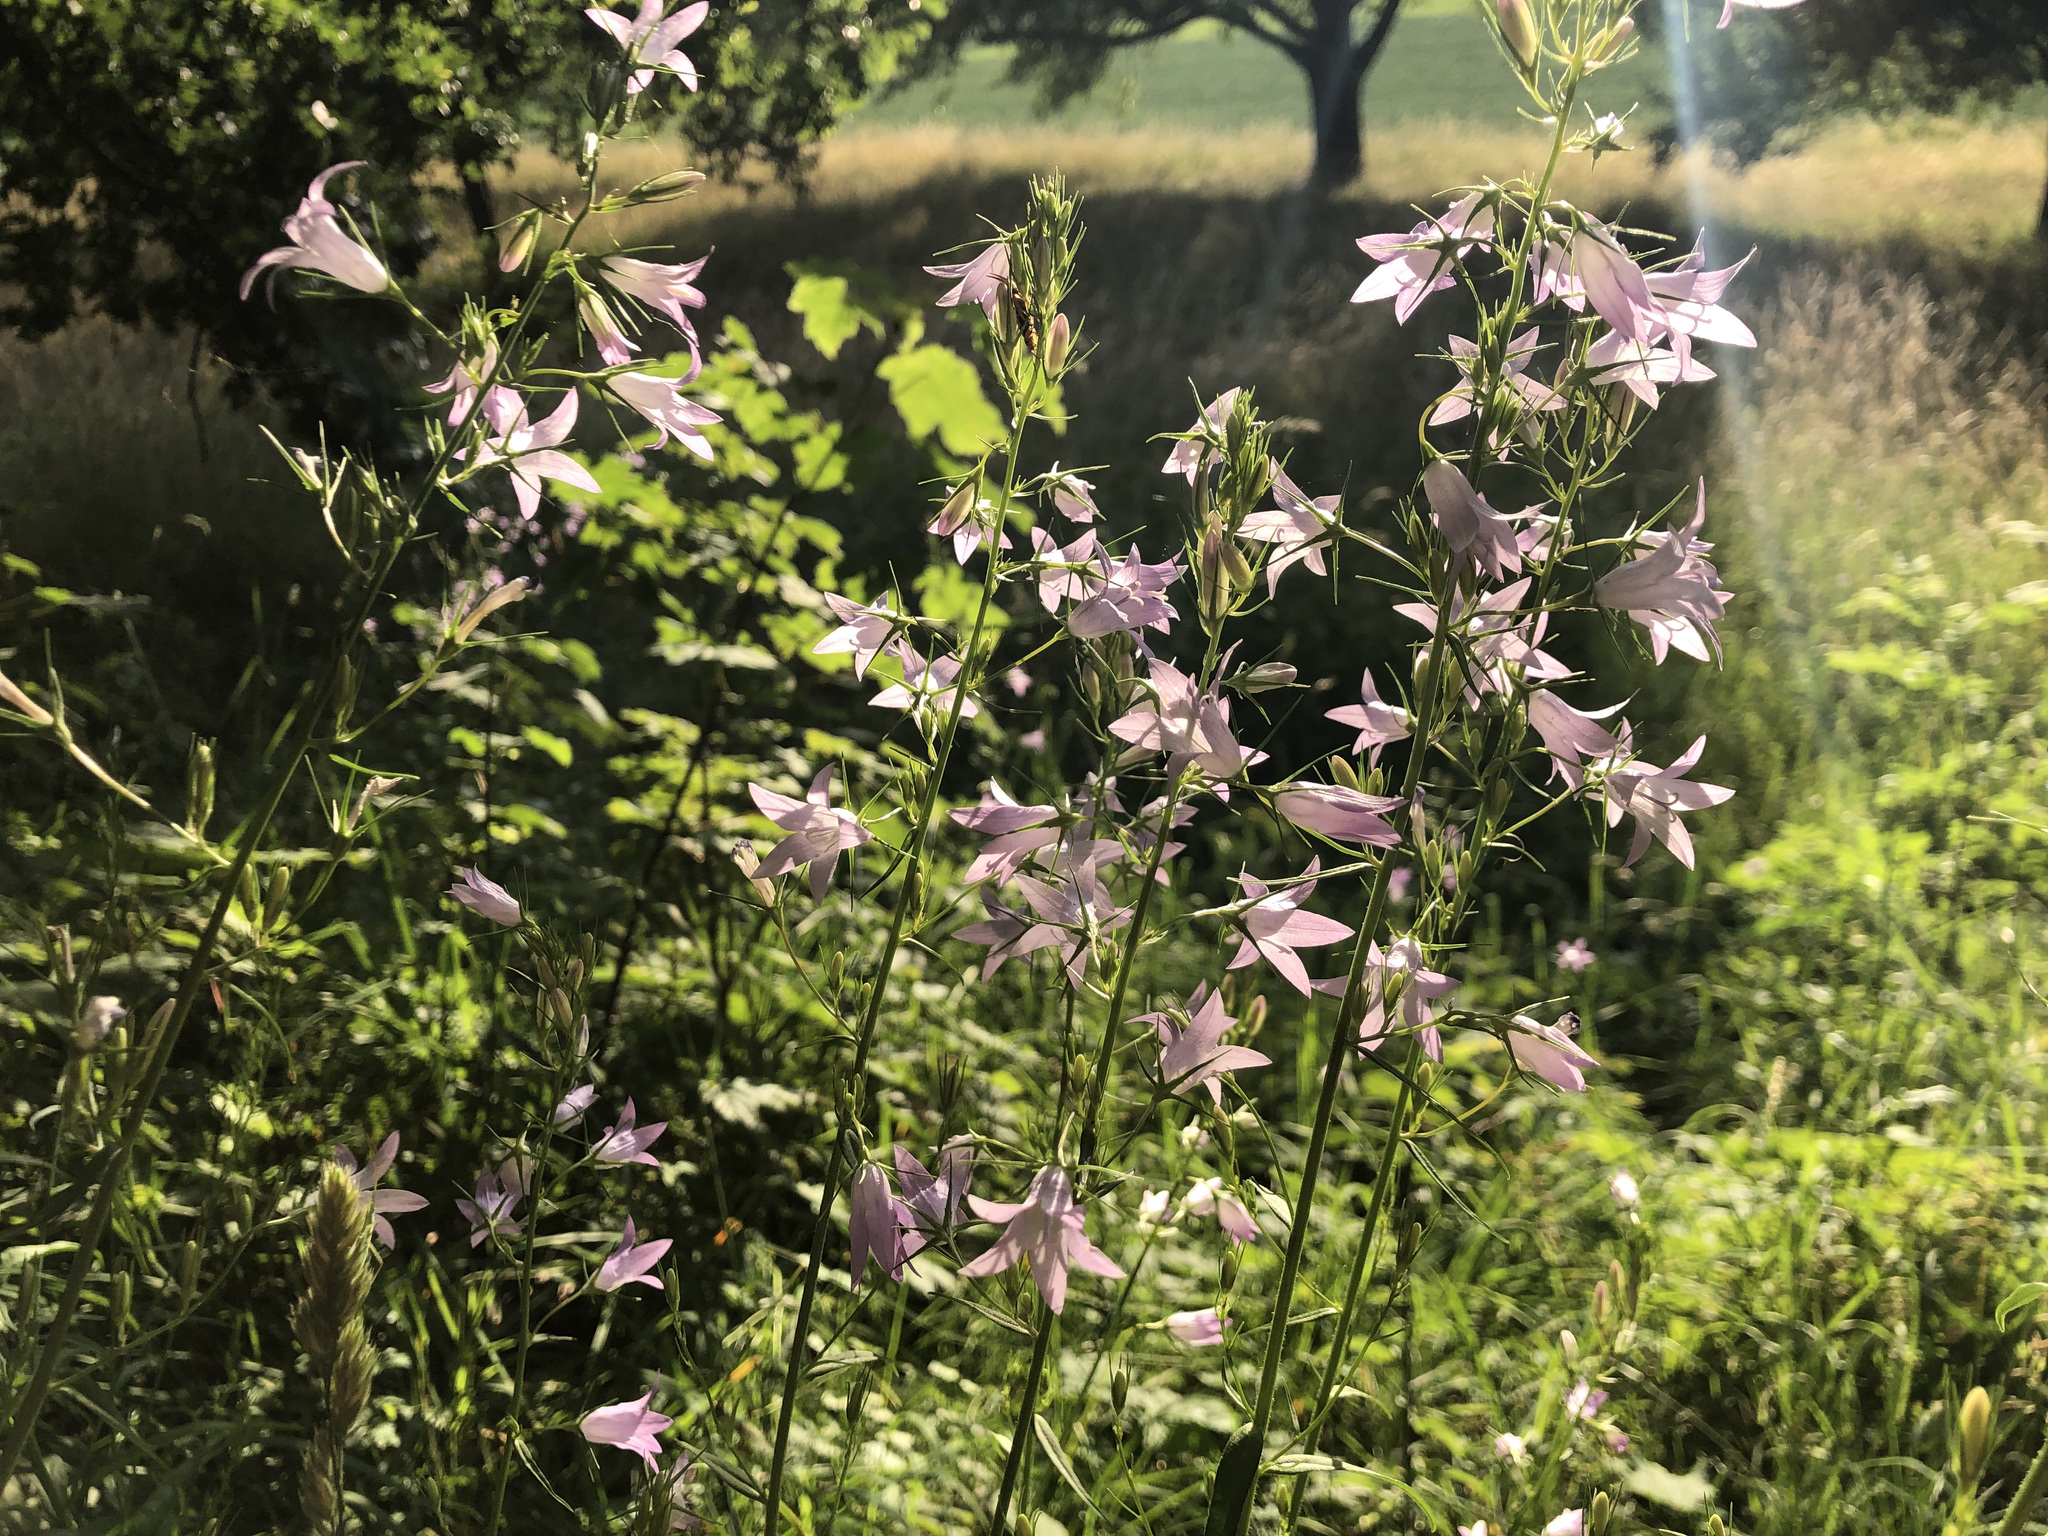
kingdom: Plantae
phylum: Tracheophyta
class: Magnoliopsida
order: Asterales
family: Campanulaceae
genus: Campanula
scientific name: Campanula rapunculus
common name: Rampion bellflower
